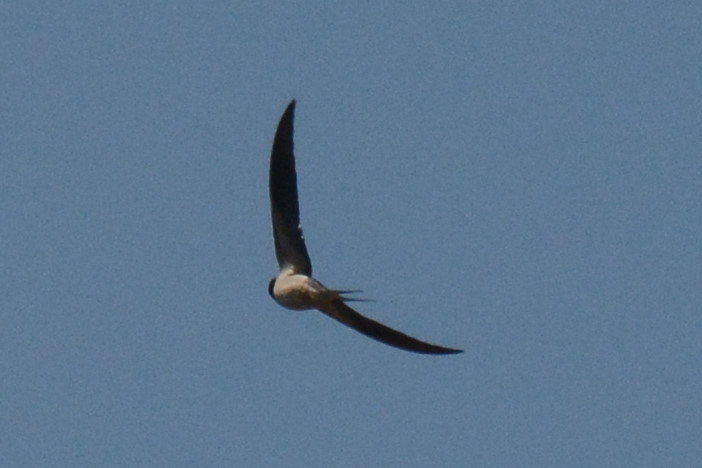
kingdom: Animalia
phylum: Chordata
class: Aves
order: Passeriformes
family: Hirundinidae
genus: Hirundo
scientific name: Hirundo rustica
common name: Barn swallow
